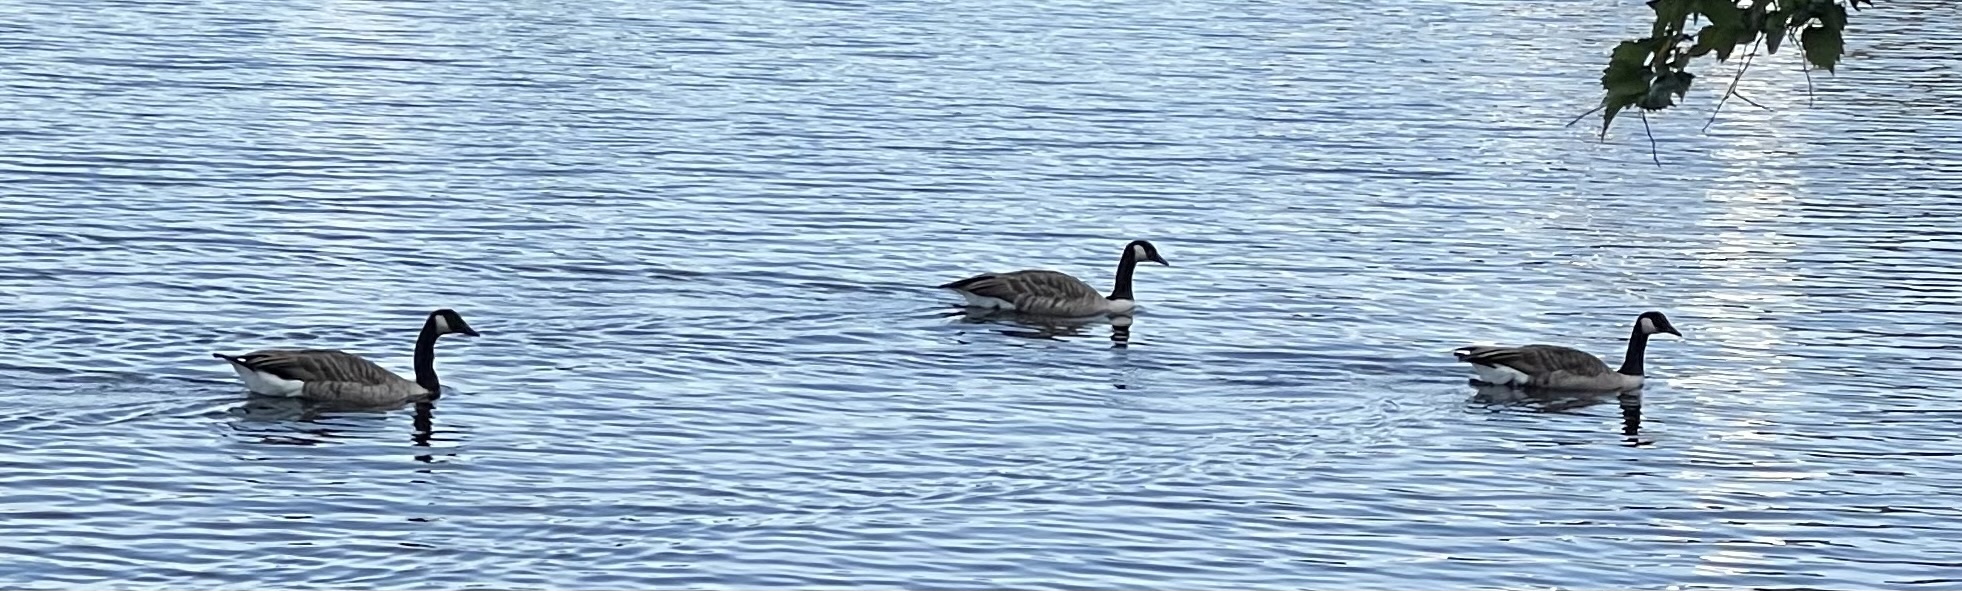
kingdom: Animalia
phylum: Chordata
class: Aves
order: Anseriformes
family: Anatidae
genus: Branta
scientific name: Branta canadensis
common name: Canada goose
